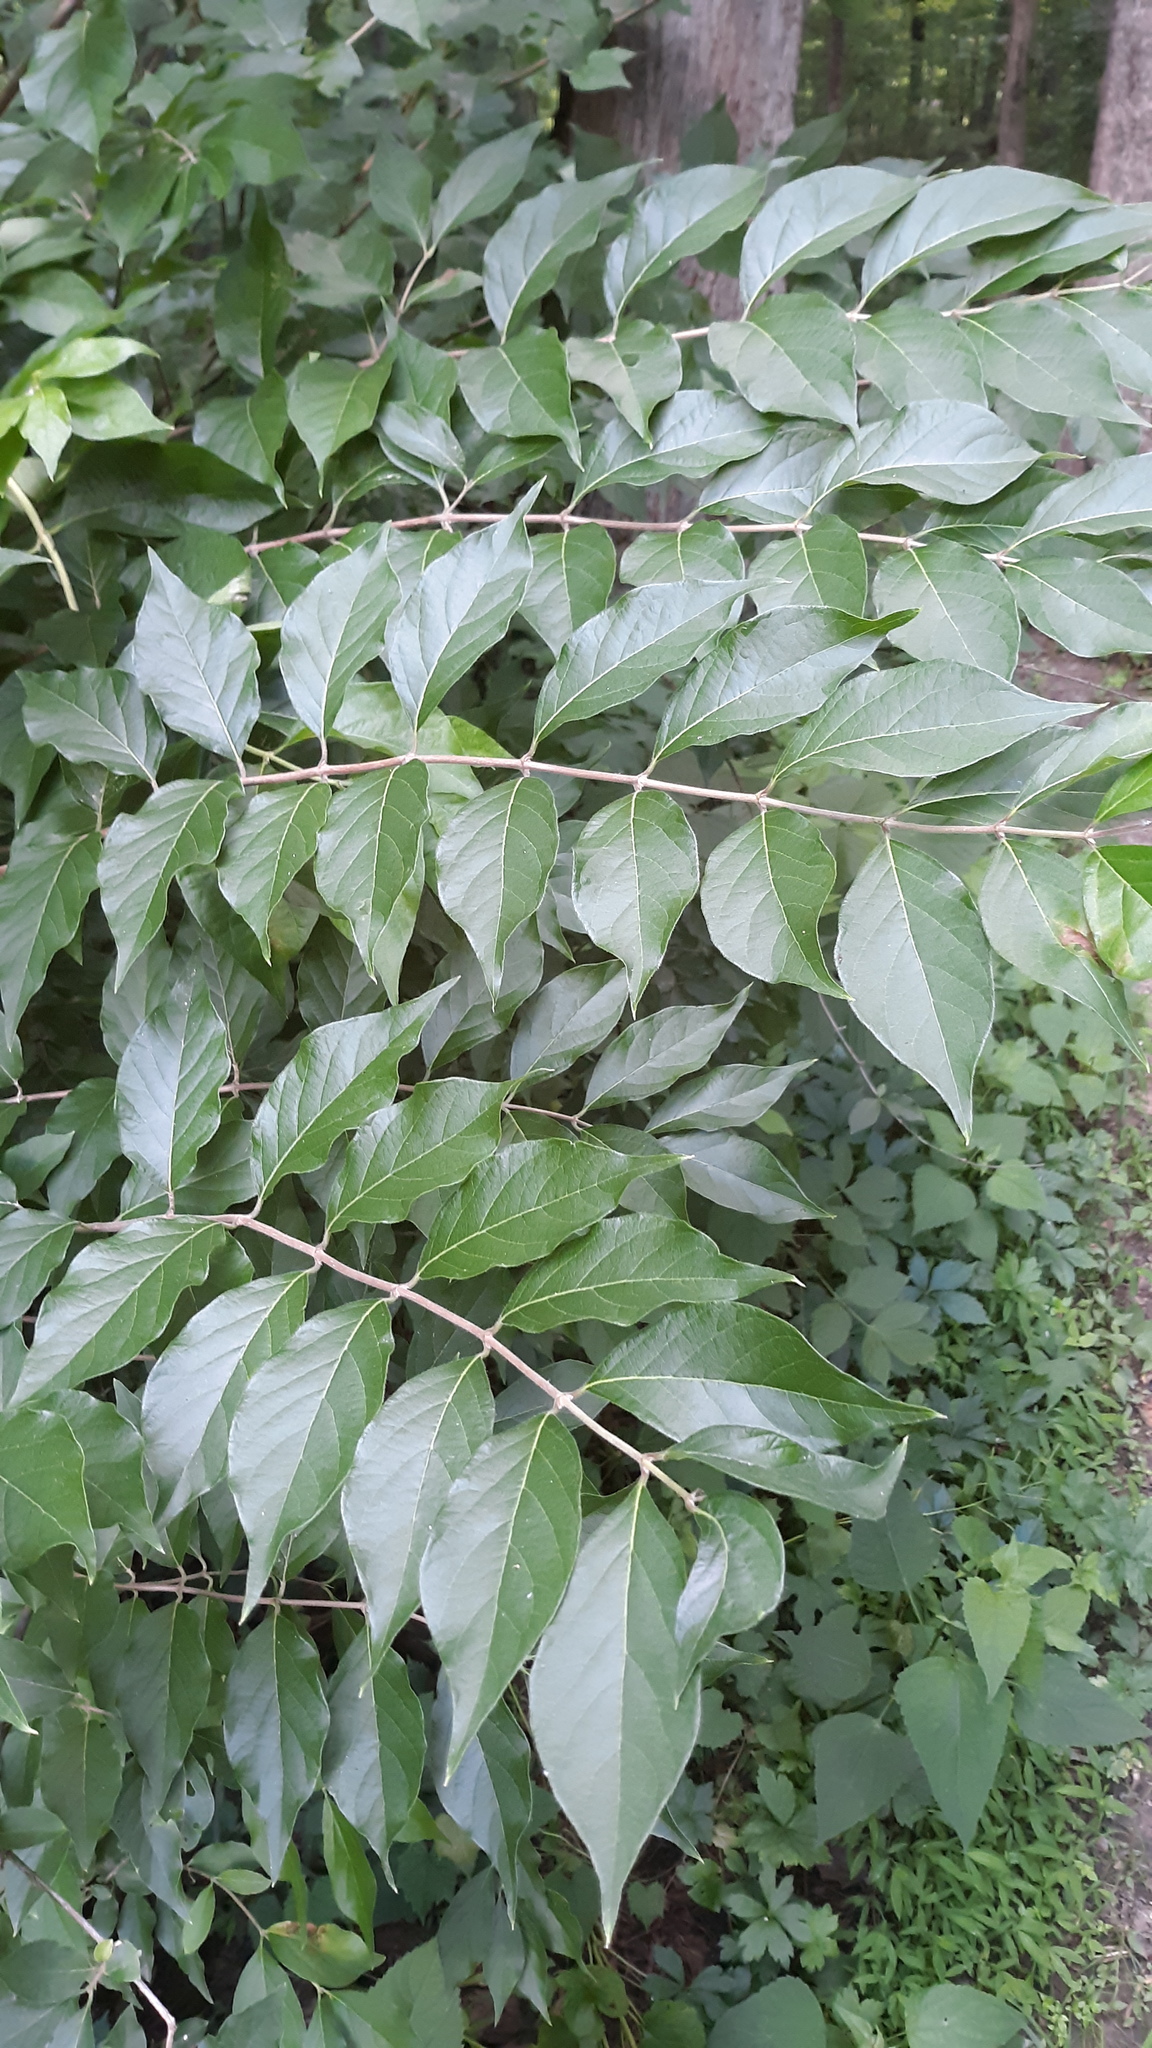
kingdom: Plantae
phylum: Tracheophyta
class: Magnoliopsida
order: Dipsacales
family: Caprifoliaceae
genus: Lonicera
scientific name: Lonicera maackii
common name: Amur honeysuckle
